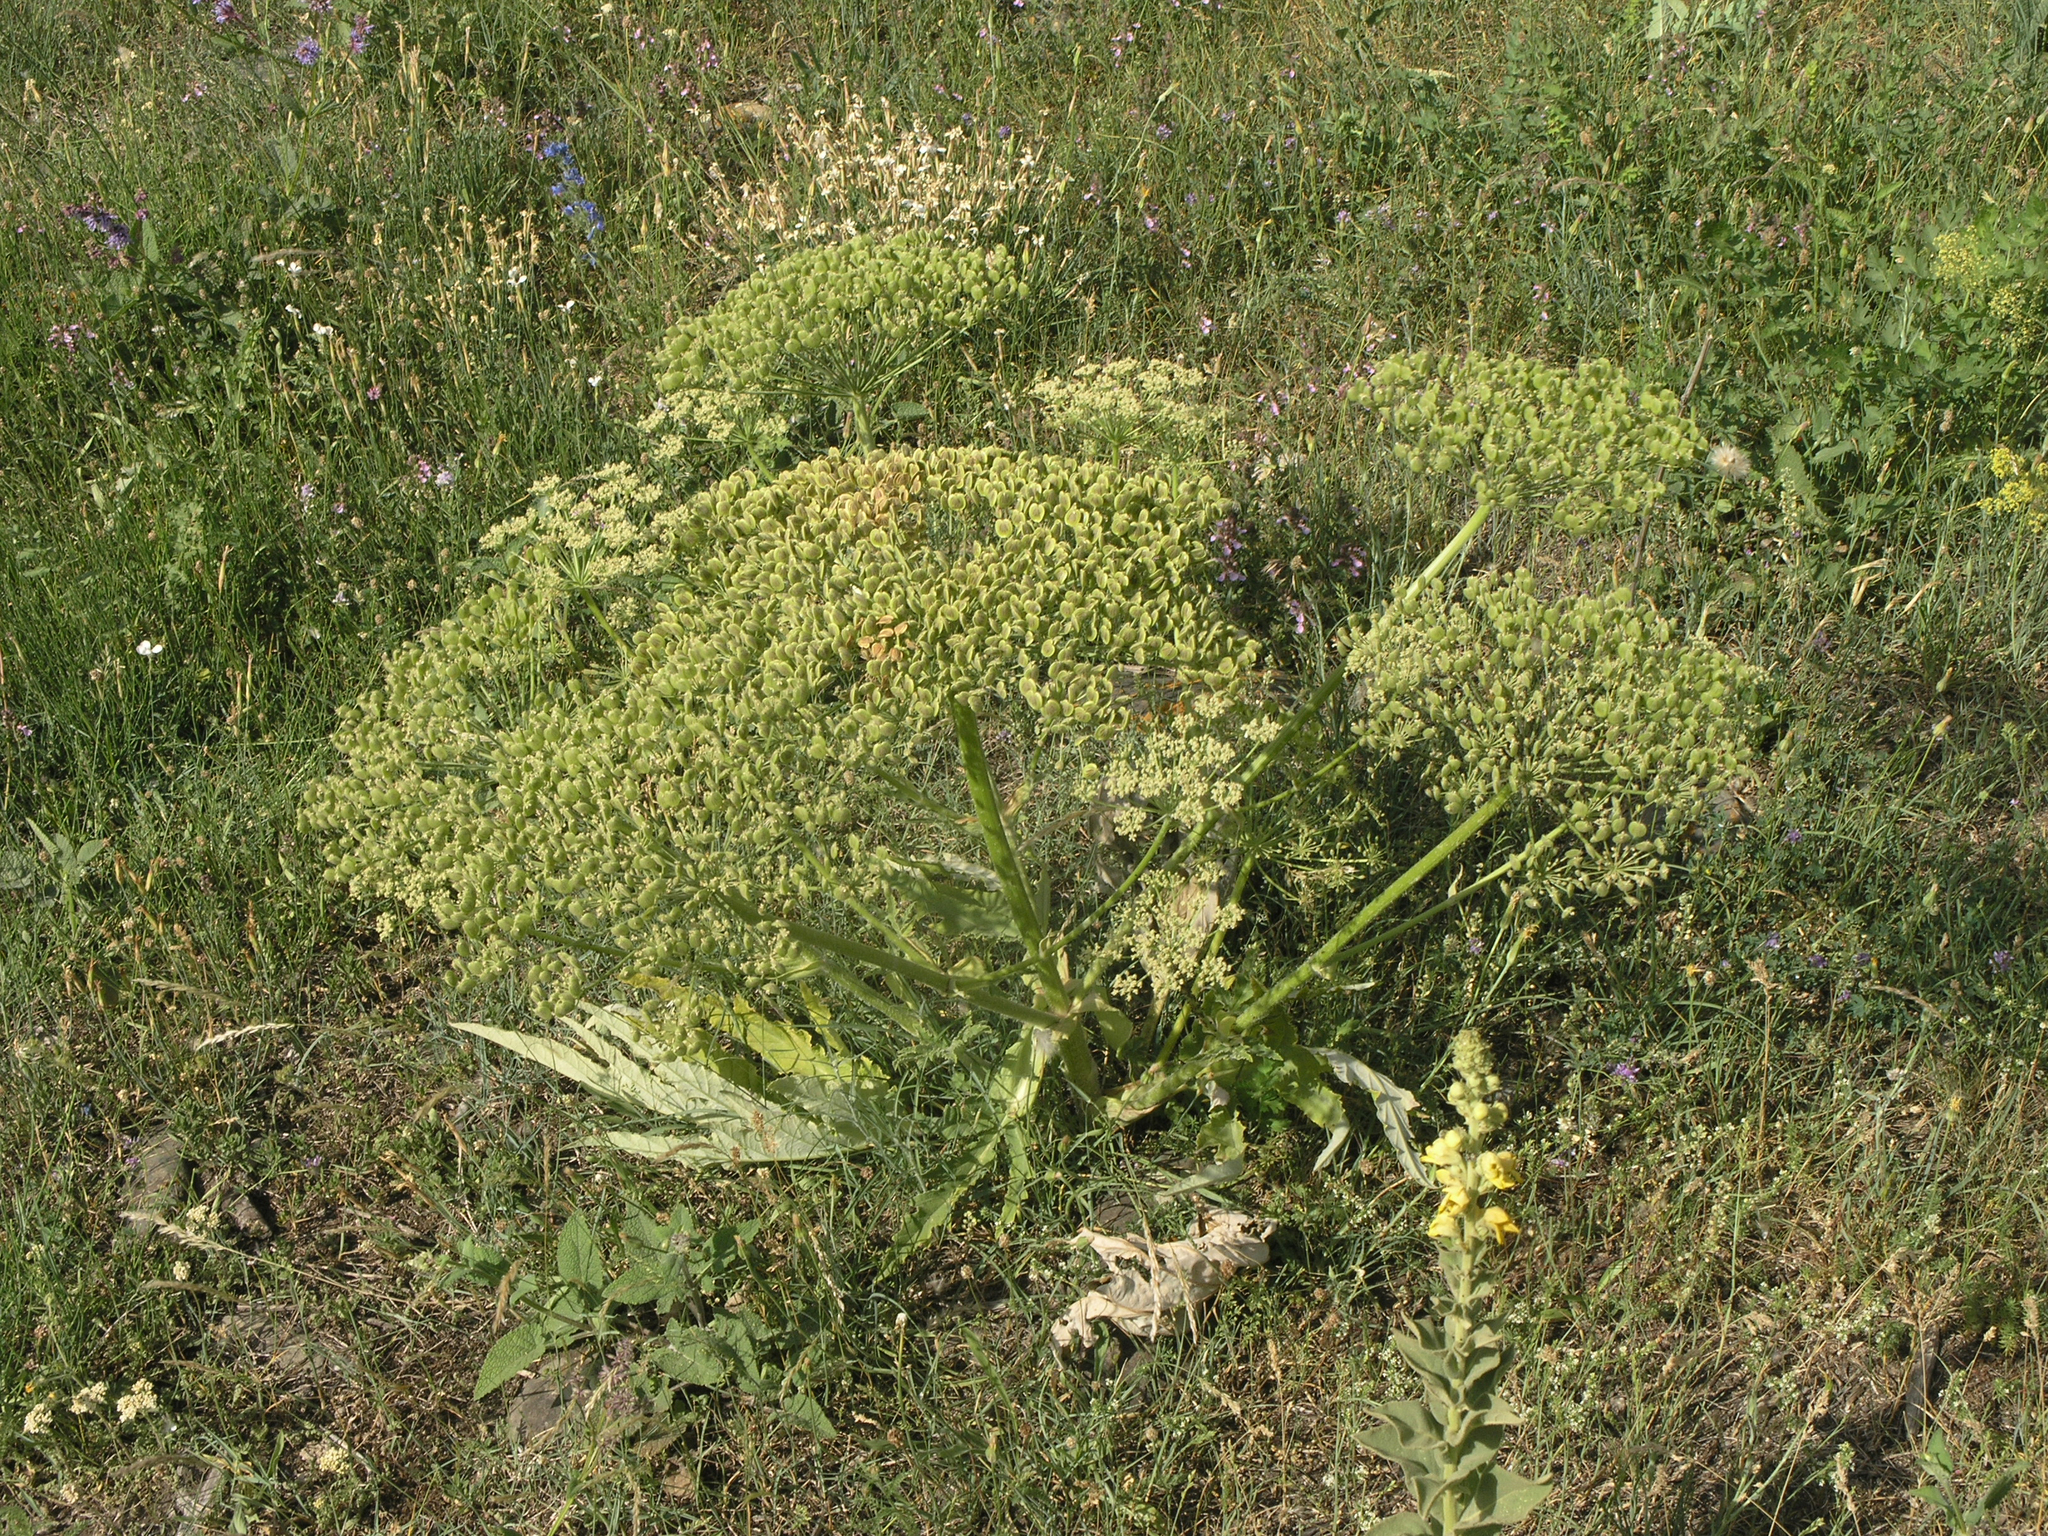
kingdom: Plantae
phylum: Tracheophyta
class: Magnoliopsida
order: Apiales
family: Apiaceae
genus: Heracleum
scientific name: Heracleum grandiflorum
